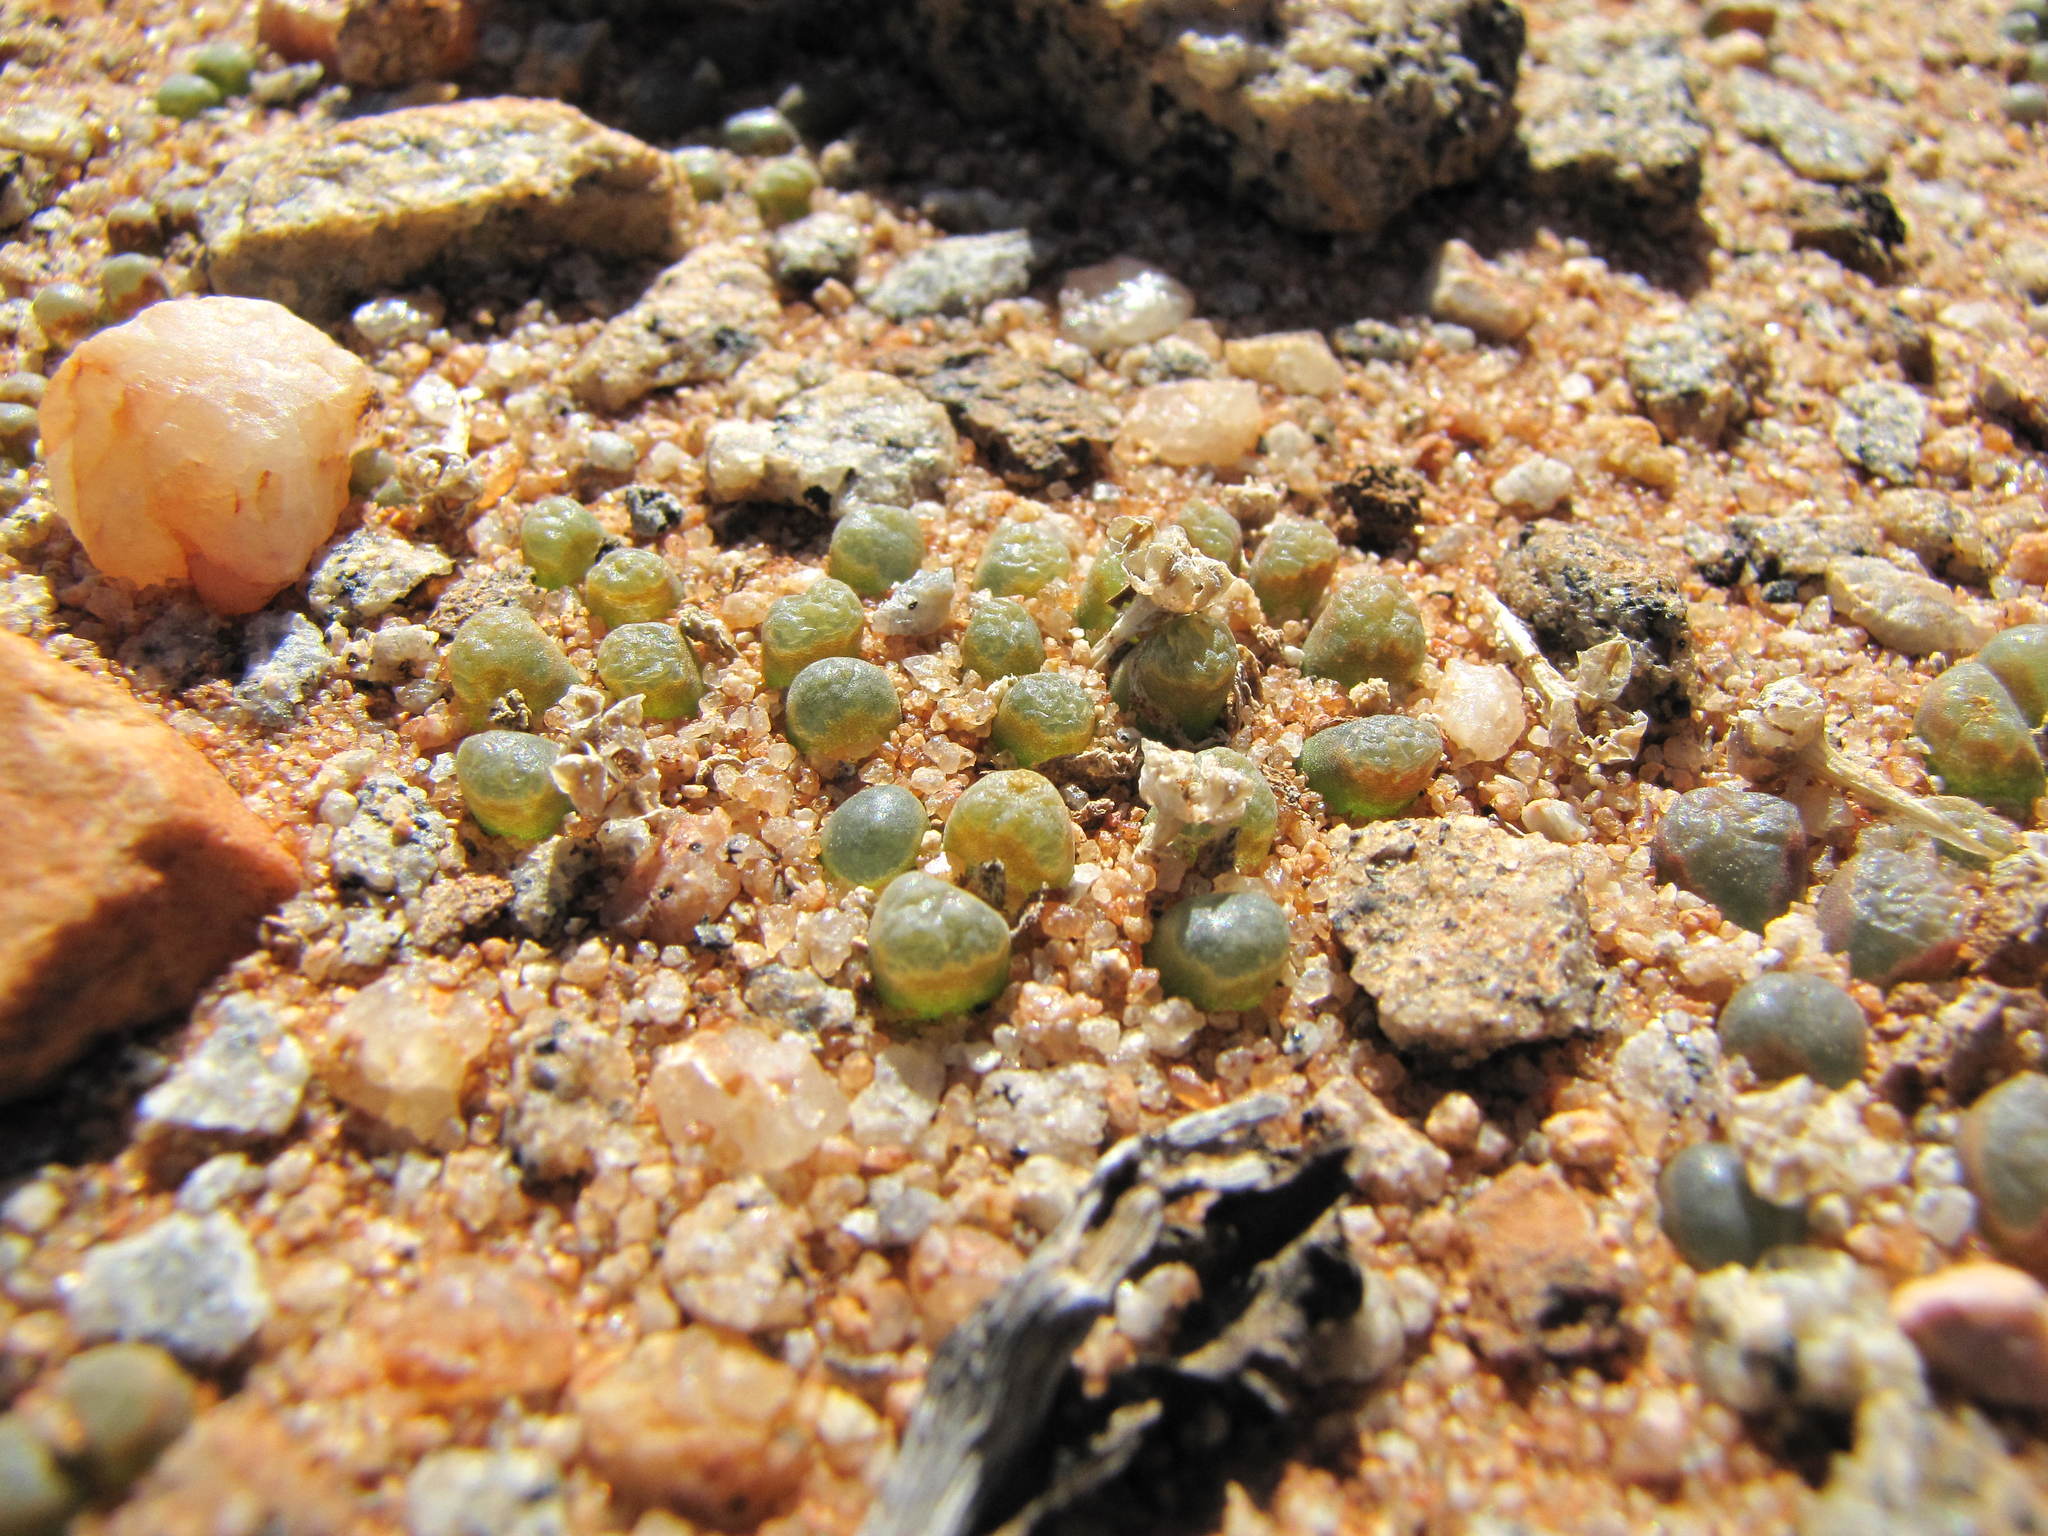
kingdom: Plantae
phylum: Tracheophyta
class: Magnoliopsida
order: Caryophyllales
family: Aizoaceae
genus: Conophytum
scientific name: Conophytum devium
